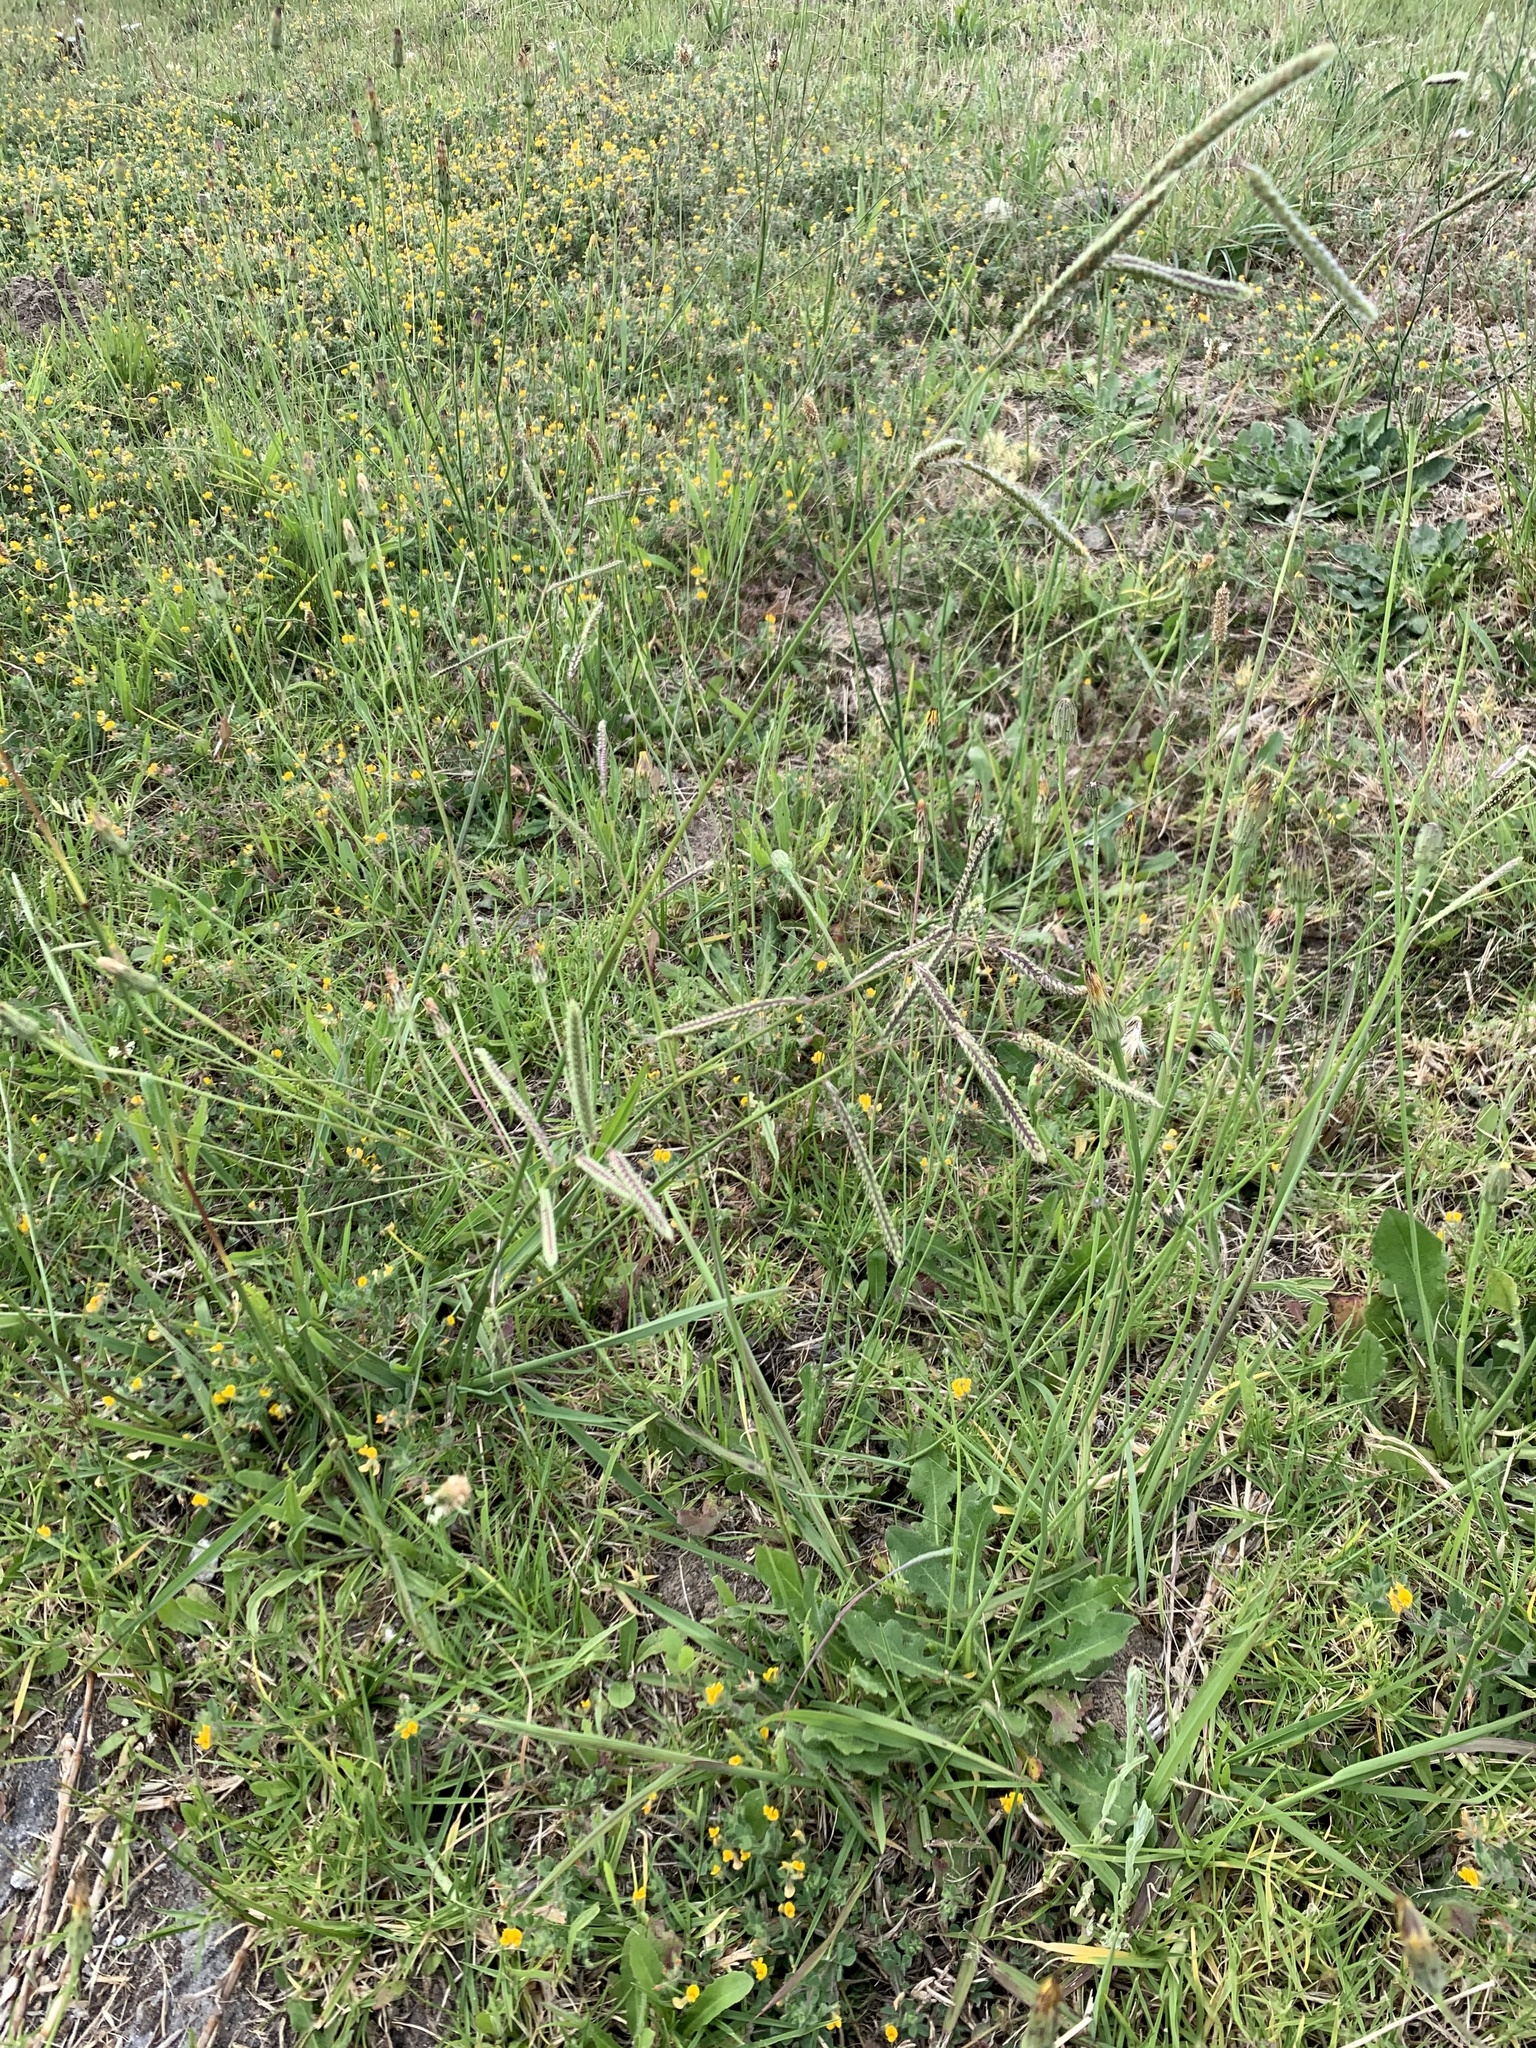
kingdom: Plantae
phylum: Tracheophyta
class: Liliopsida
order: Poales
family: Poaceae
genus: Paspalum
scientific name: Paspalum dilatatum
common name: Dallisgrass
